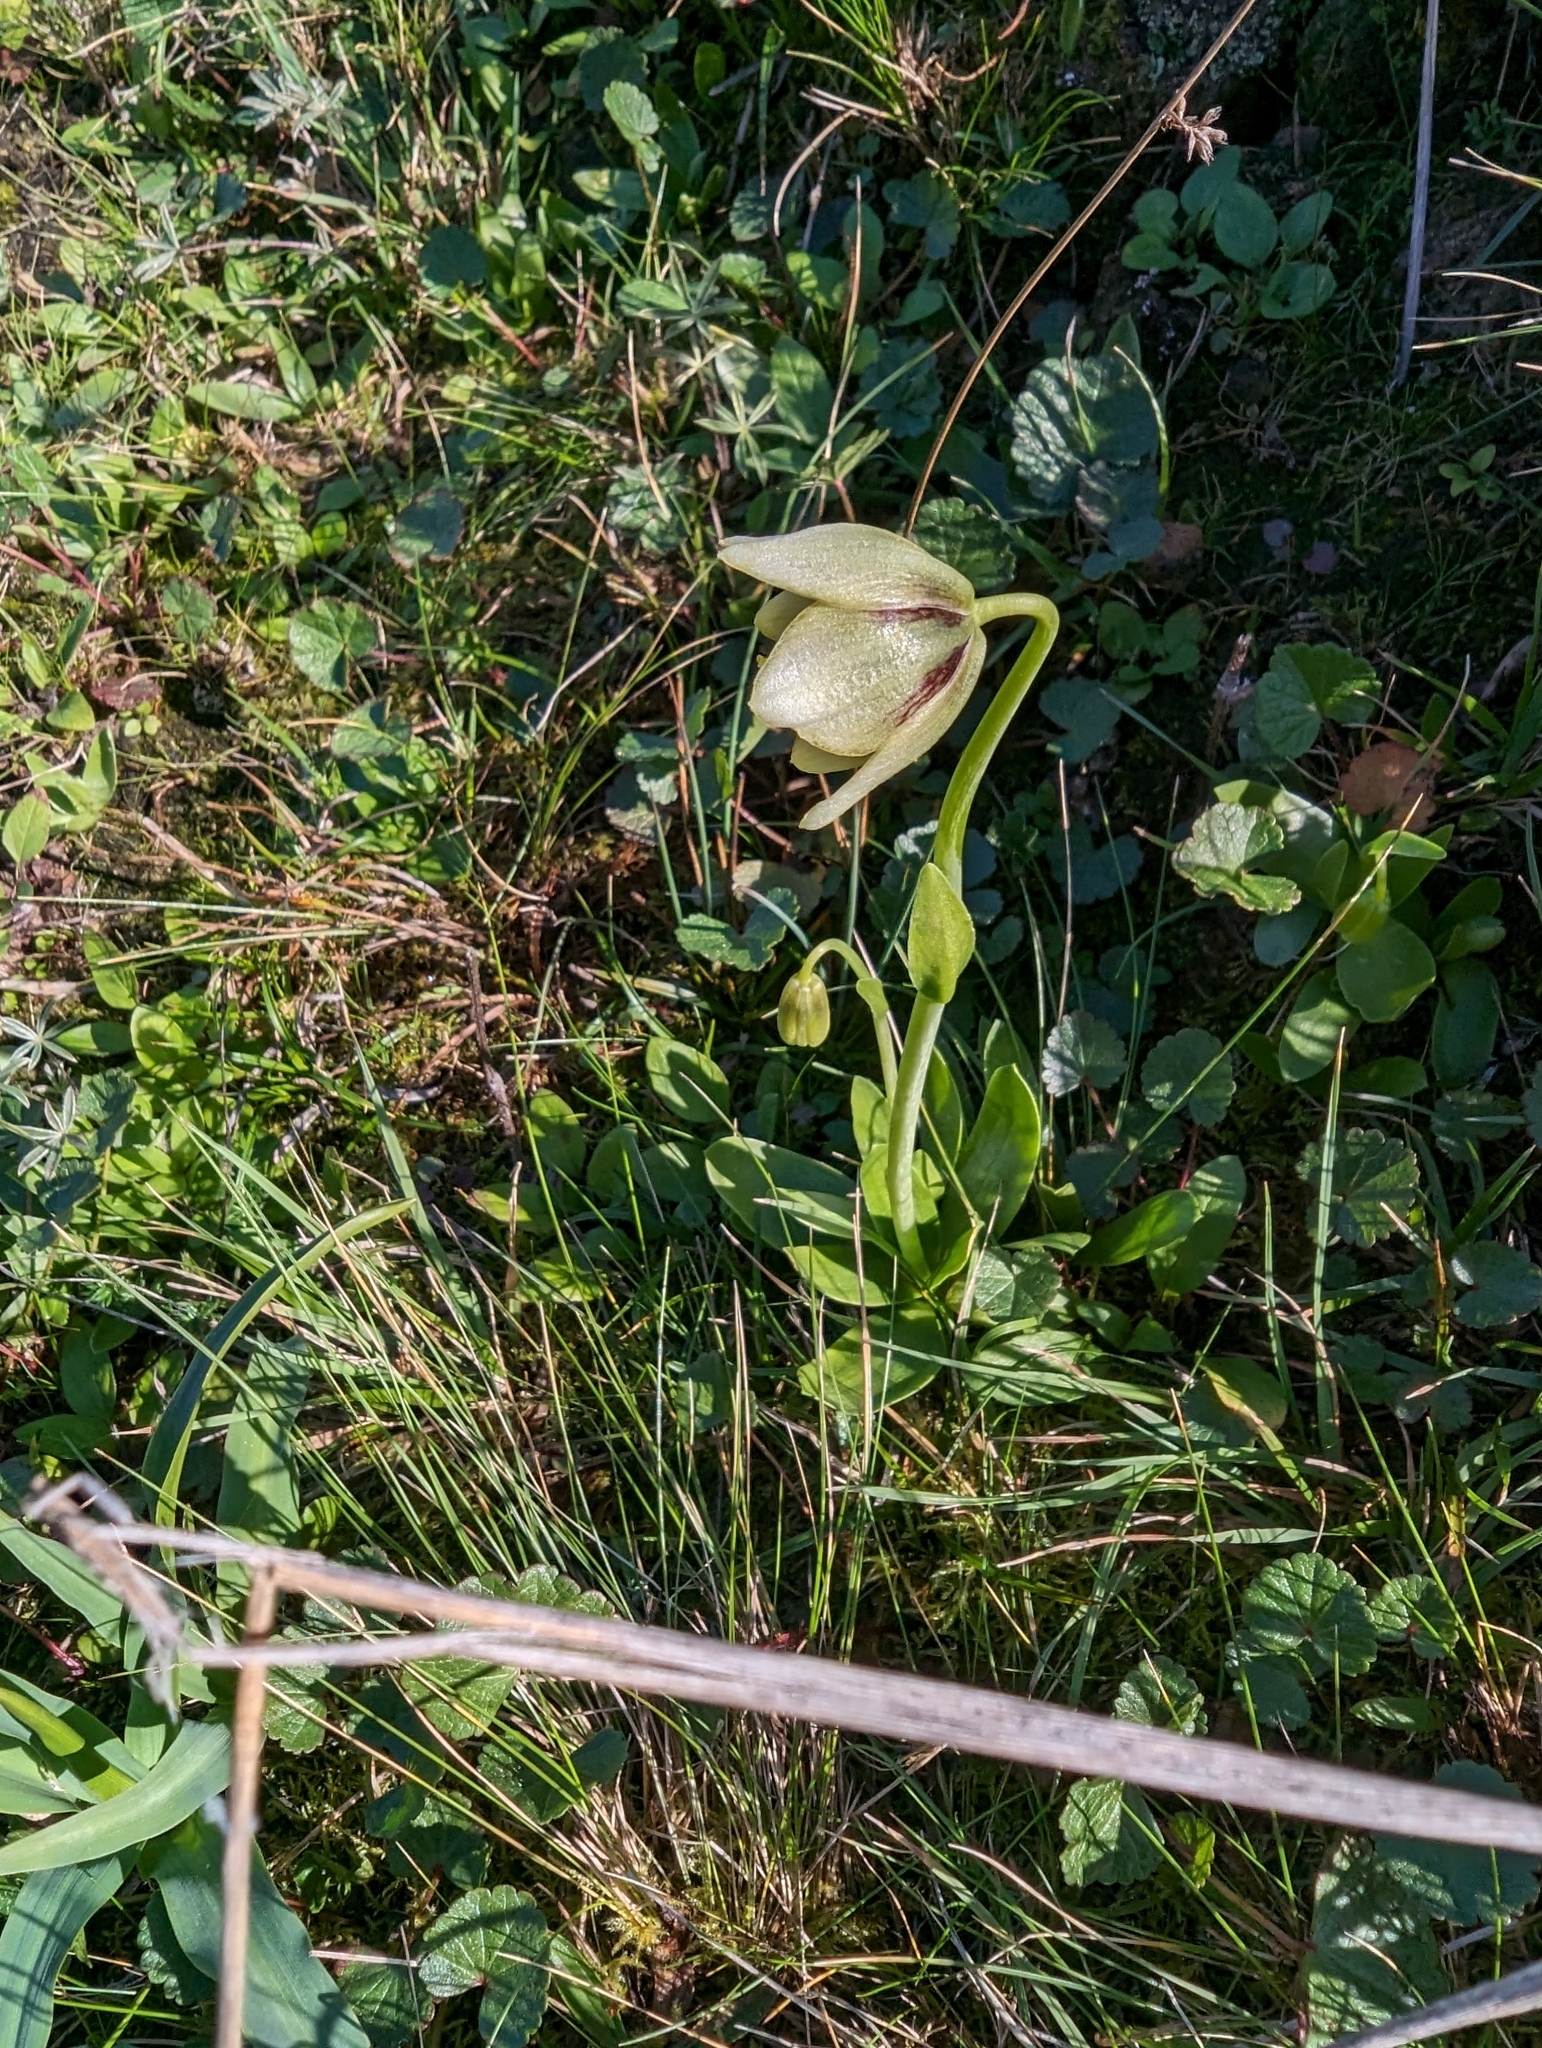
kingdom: Plantae
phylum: Tracheophyta
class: Liliopsida
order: Liliales
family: Liliaceae
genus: Fritillaria
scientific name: Fritillaria liliacea
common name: Fragrant fritillary
